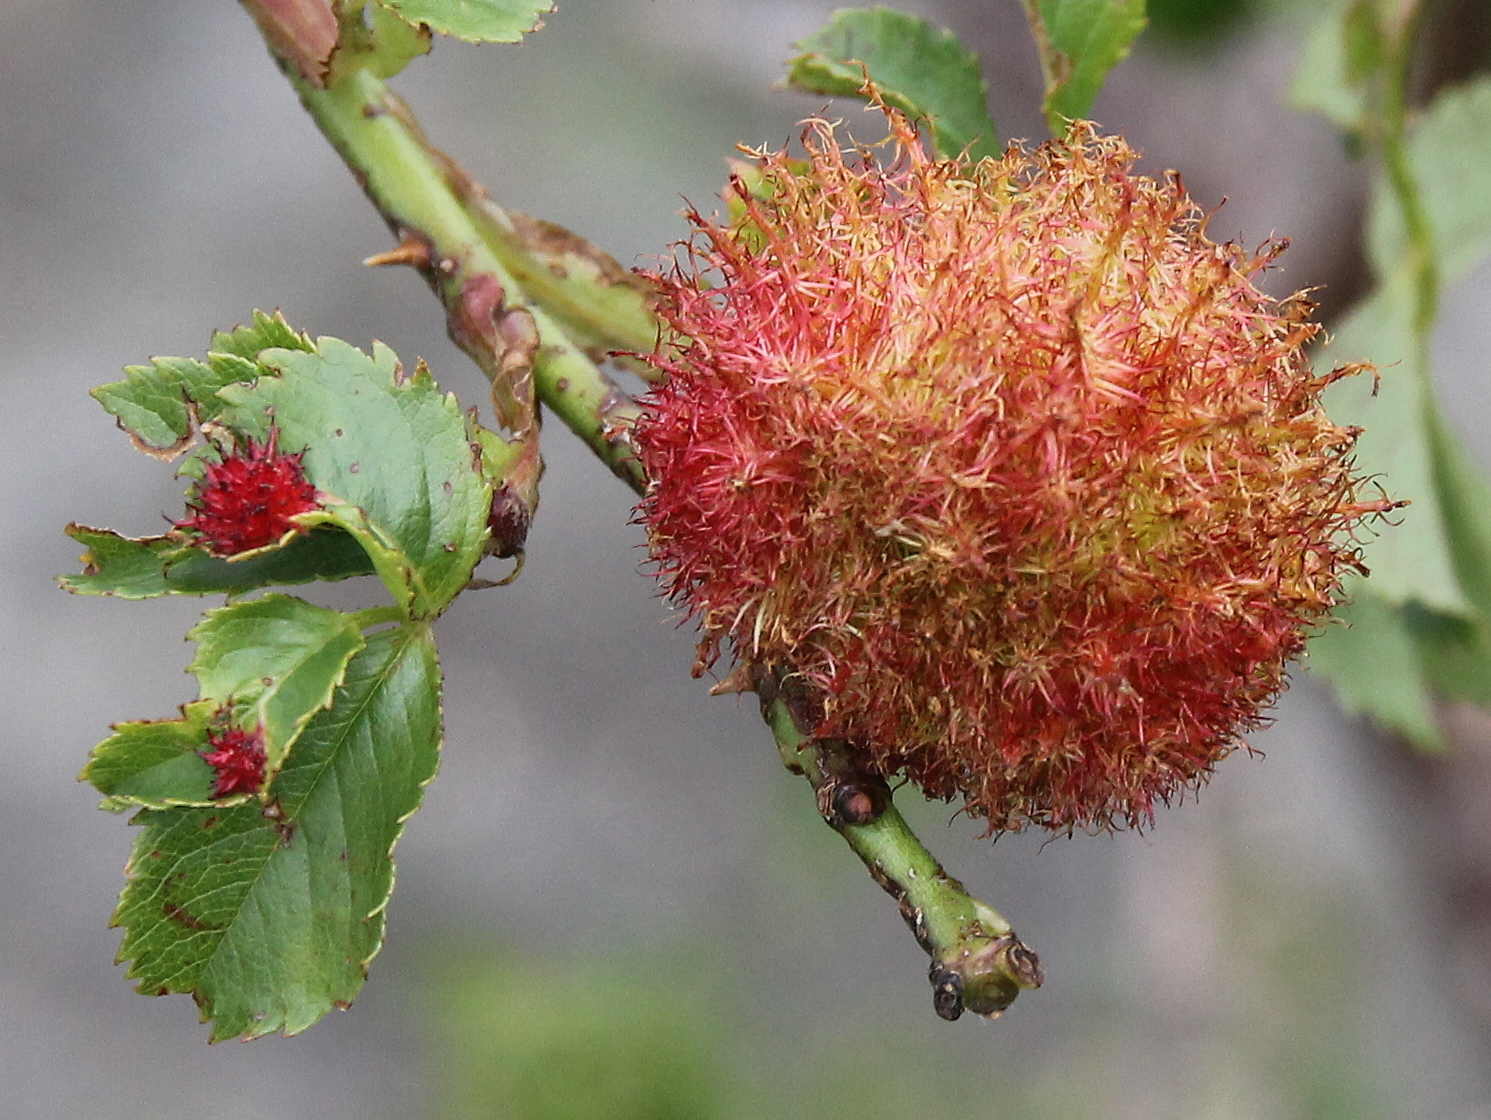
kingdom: Animalia
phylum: Arthropoda
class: Insecta
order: Hymenoptera
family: Cynipidae
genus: Diplolepis
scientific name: Diplolepis rosae
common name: Bedeguar gall
